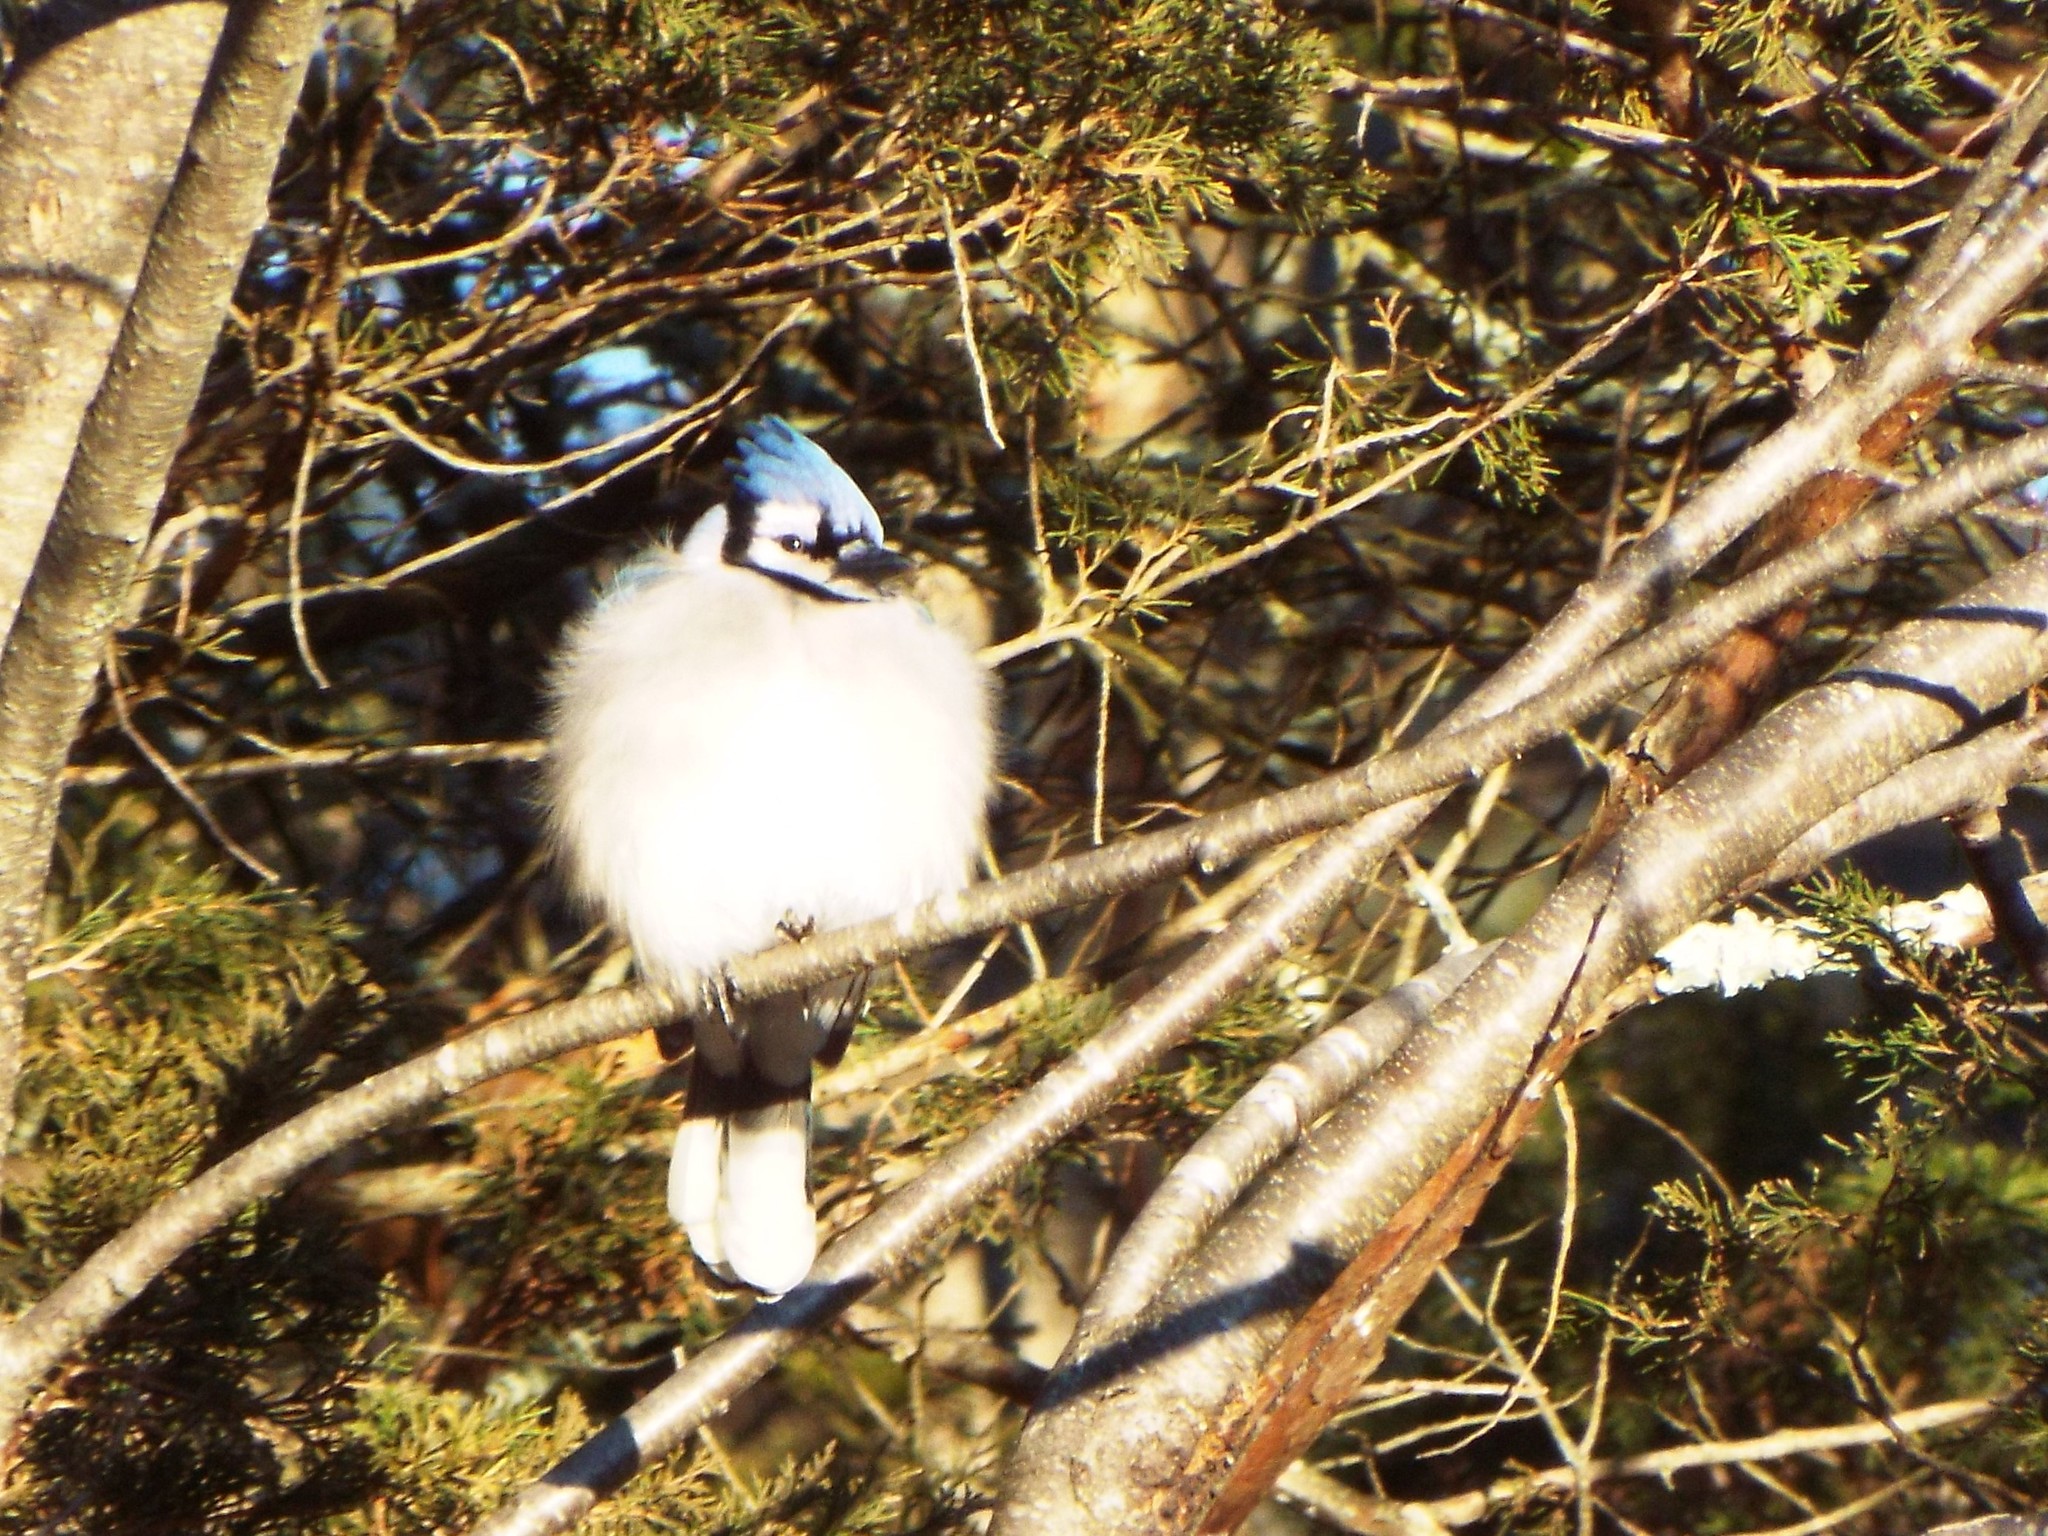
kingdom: Animalia
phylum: Chordata
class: Aves
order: Passeriformes
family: Corvidae
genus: Cyanocitta
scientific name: Cyanocitta cristata
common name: Blue jay
